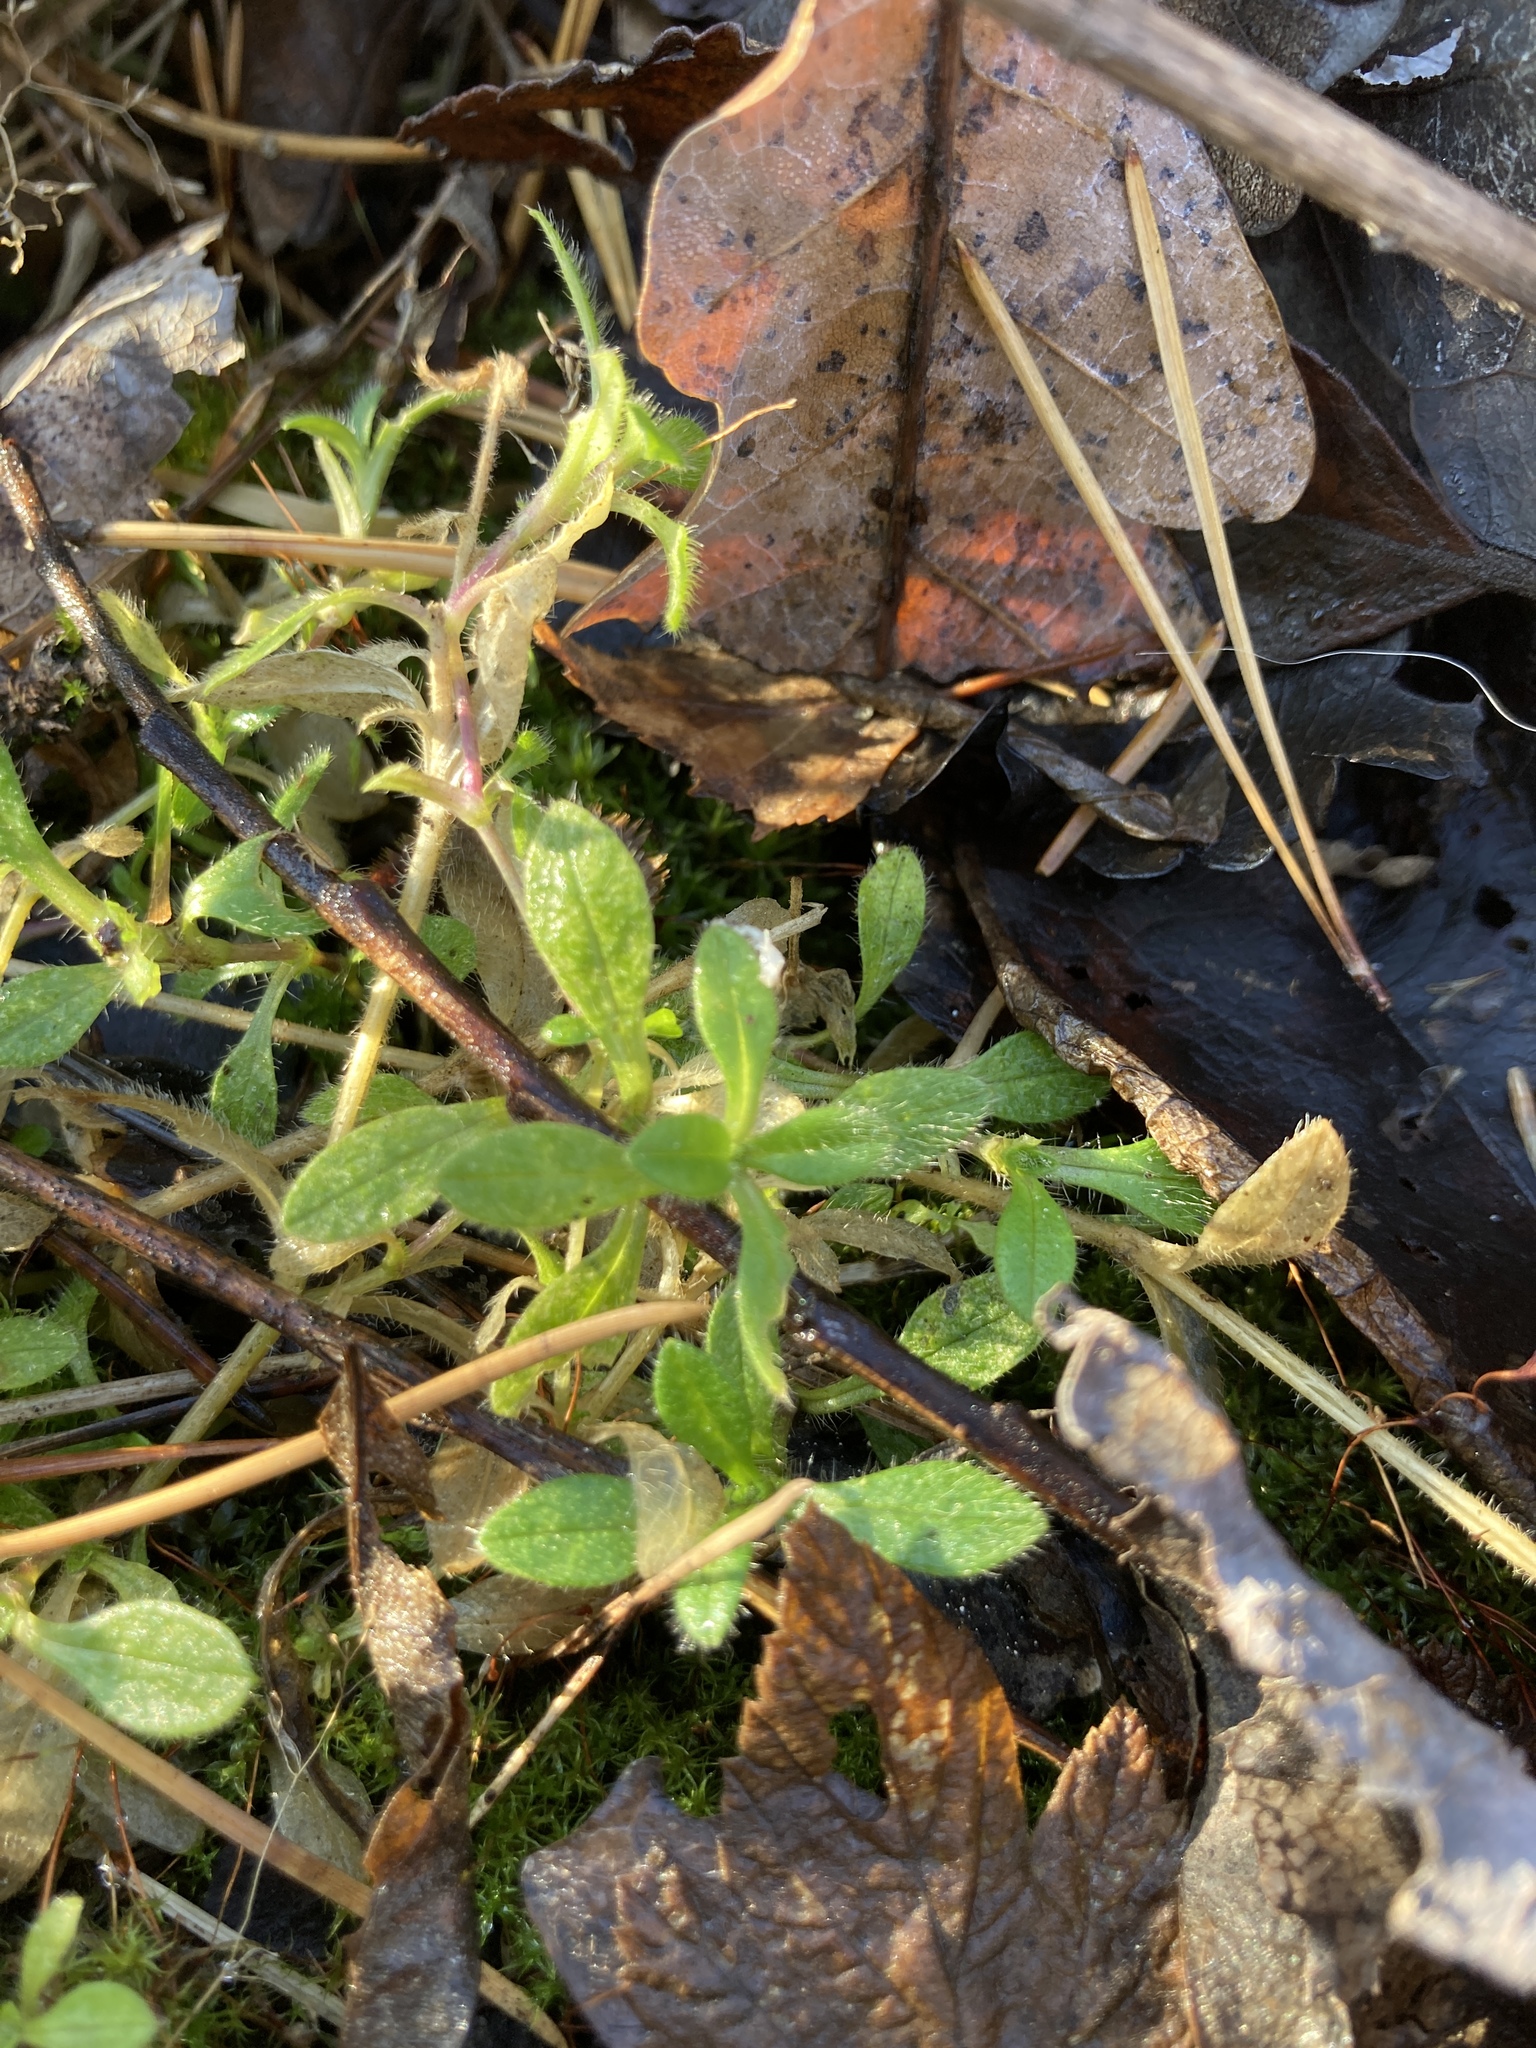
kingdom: Plantae
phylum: Tracheophyta
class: Magnoliopsida
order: Caryophyllales
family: Caryophyllaceae
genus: Cerastium
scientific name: Cerastium holosteoides
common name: Big chickweed
